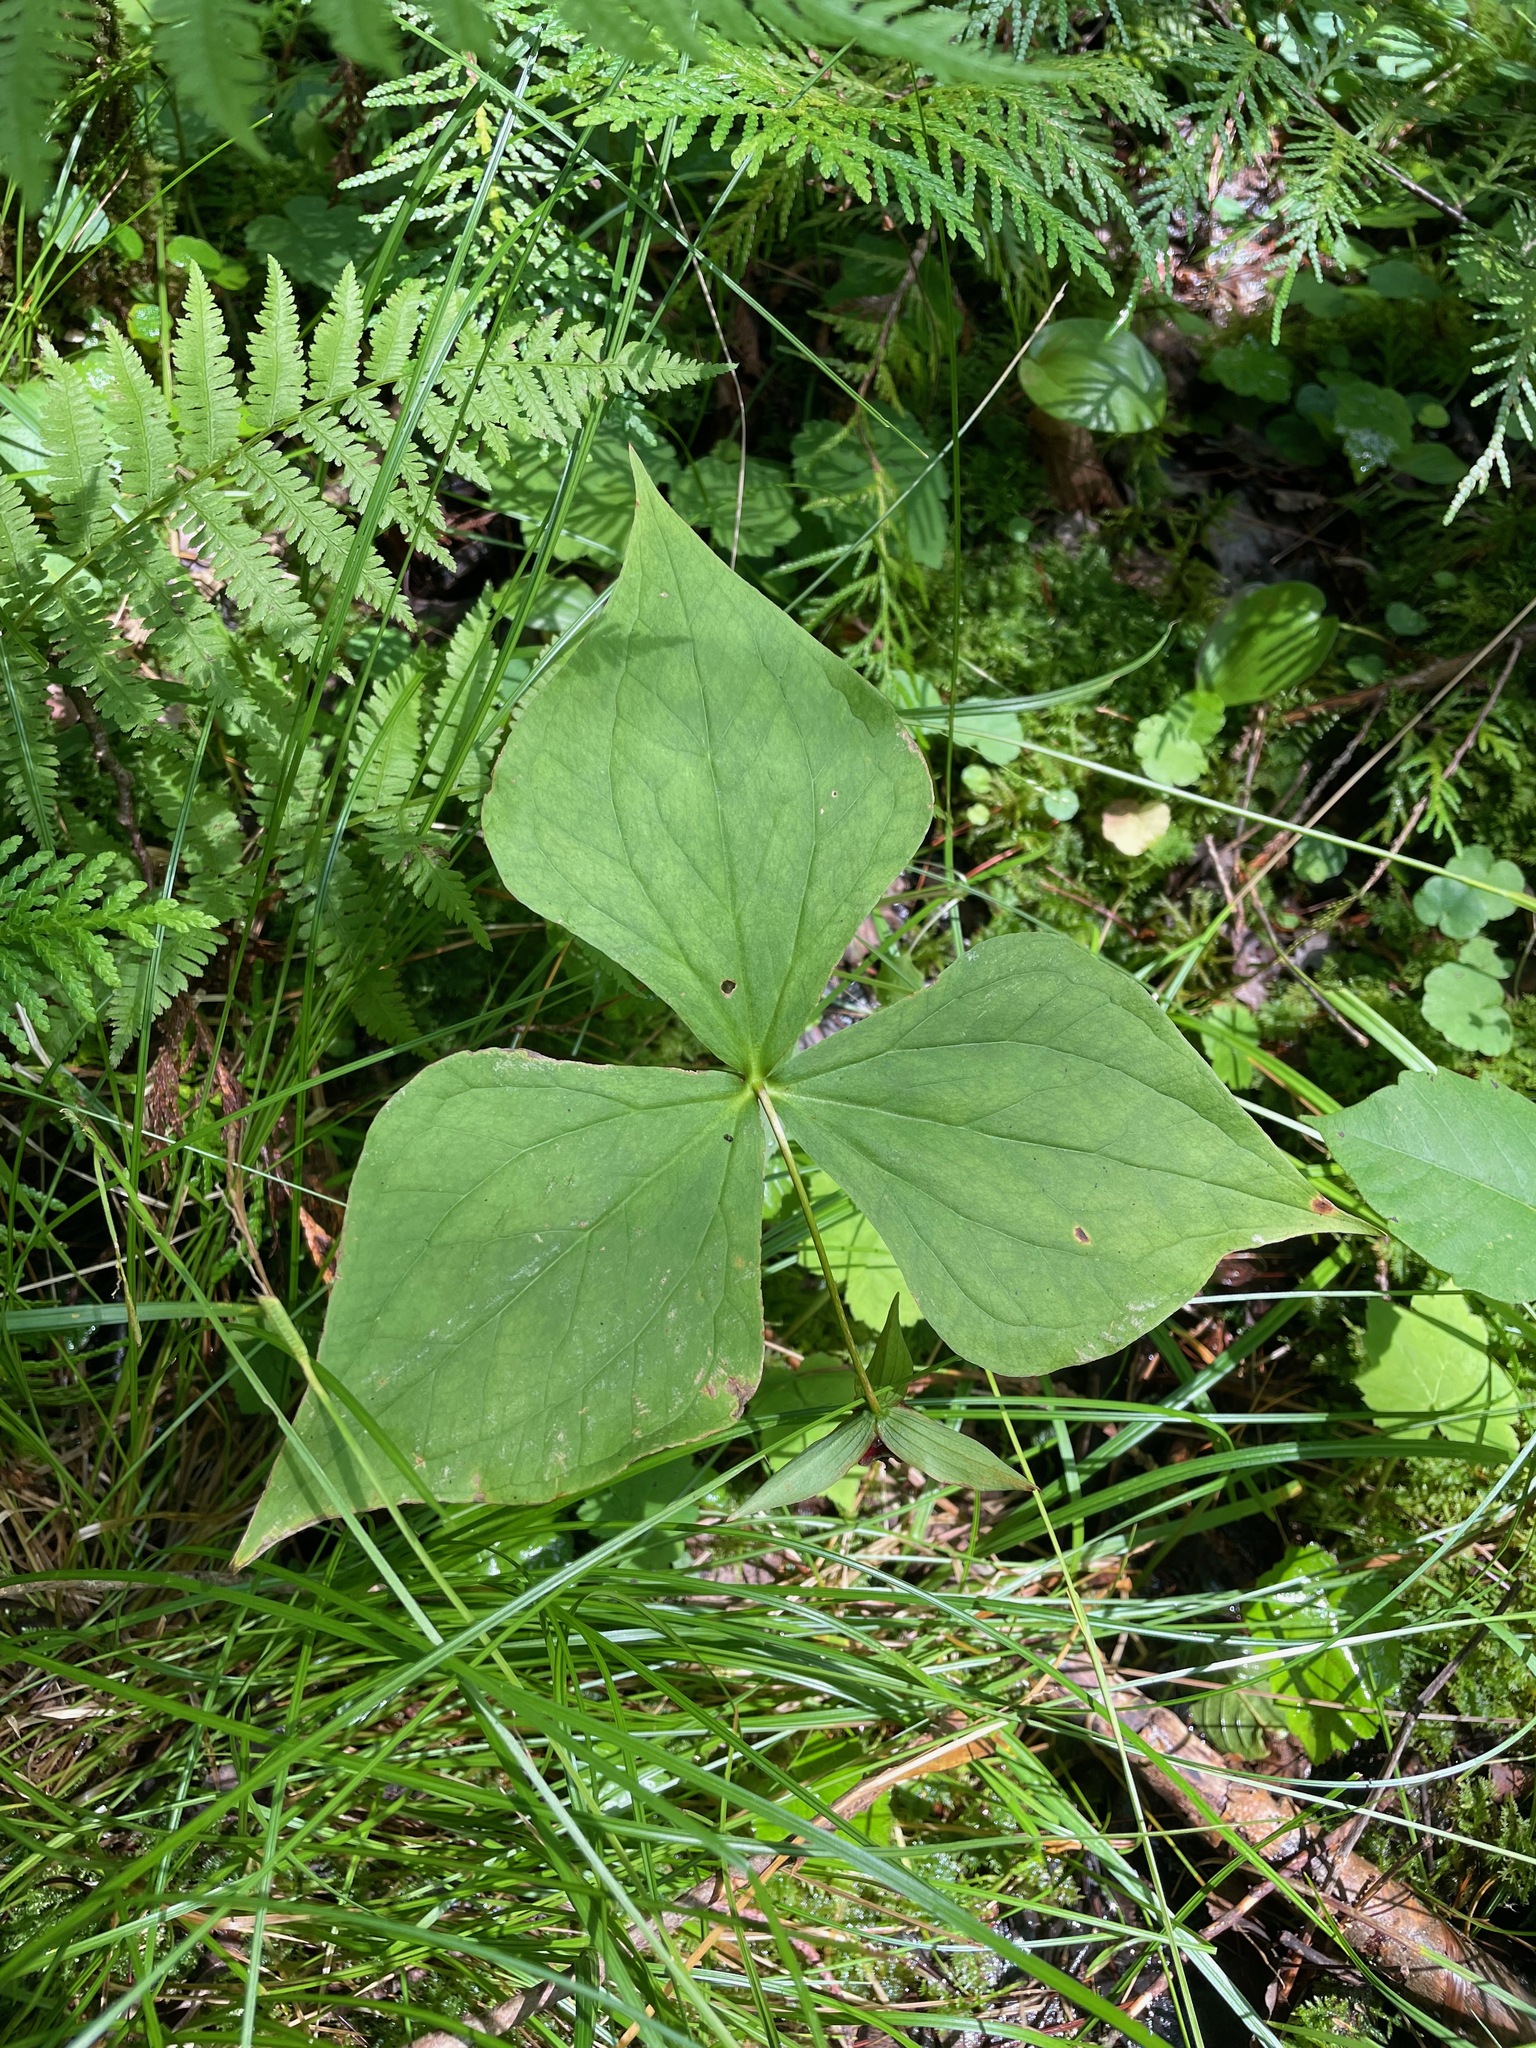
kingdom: Plantae
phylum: Tracheophyta
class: Liliopsida
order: Liliales
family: Melanthiaceae
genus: Trillium
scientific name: Trillium erectum
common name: Purple trillium
